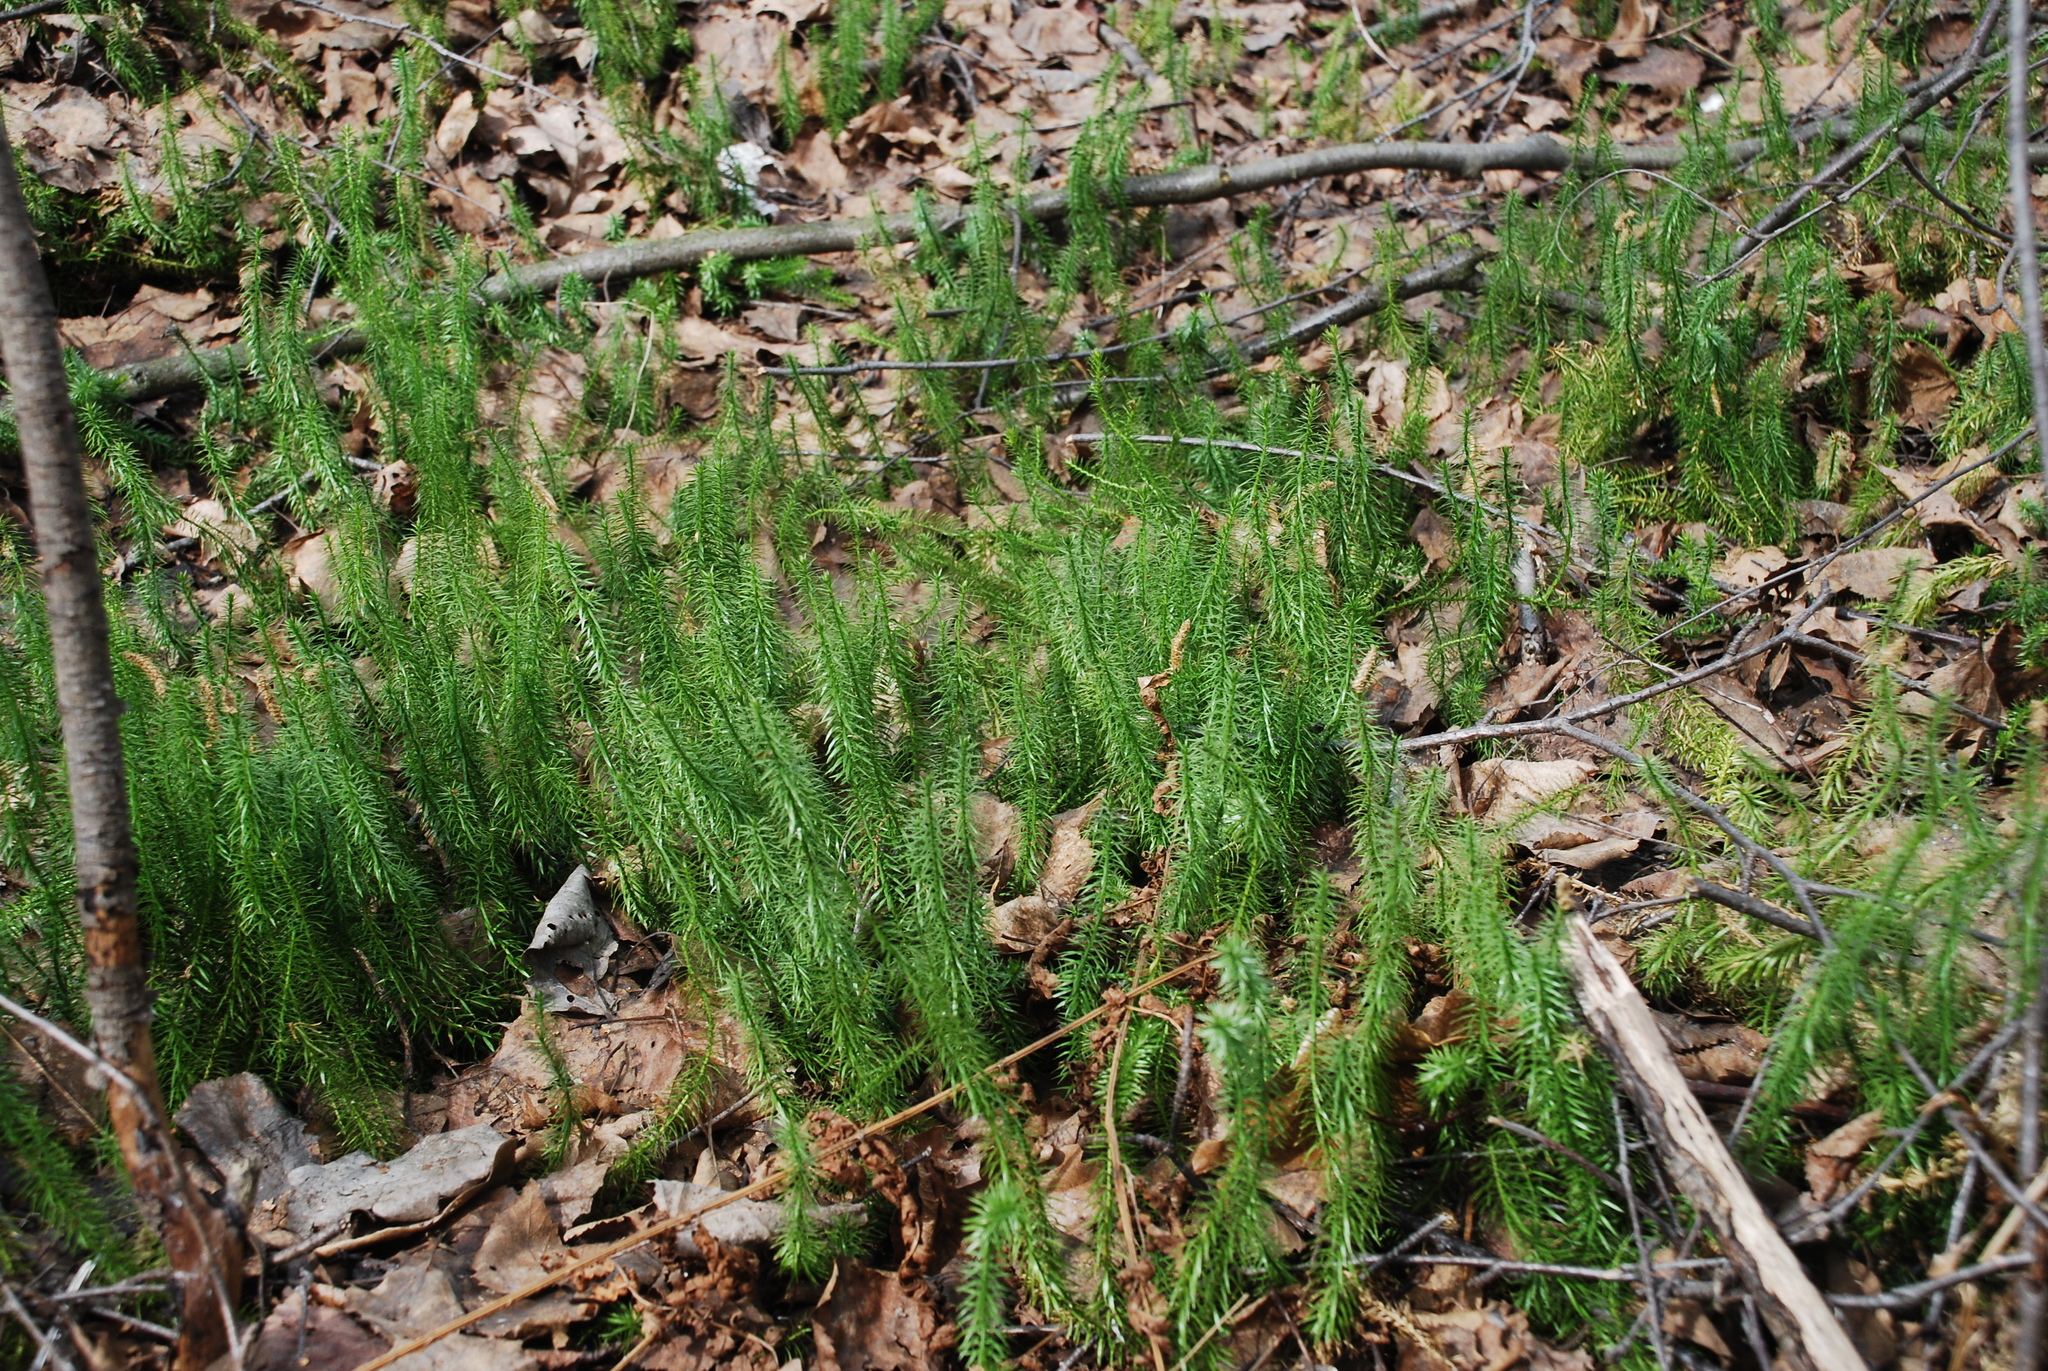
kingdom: Plantae
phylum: Tracheophyta
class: Lycopodiopsida
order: Lycopodiales
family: Lycopodiaceae
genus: Spinulum
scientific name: Spinulum annotinum
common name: Interrupted club-moss
